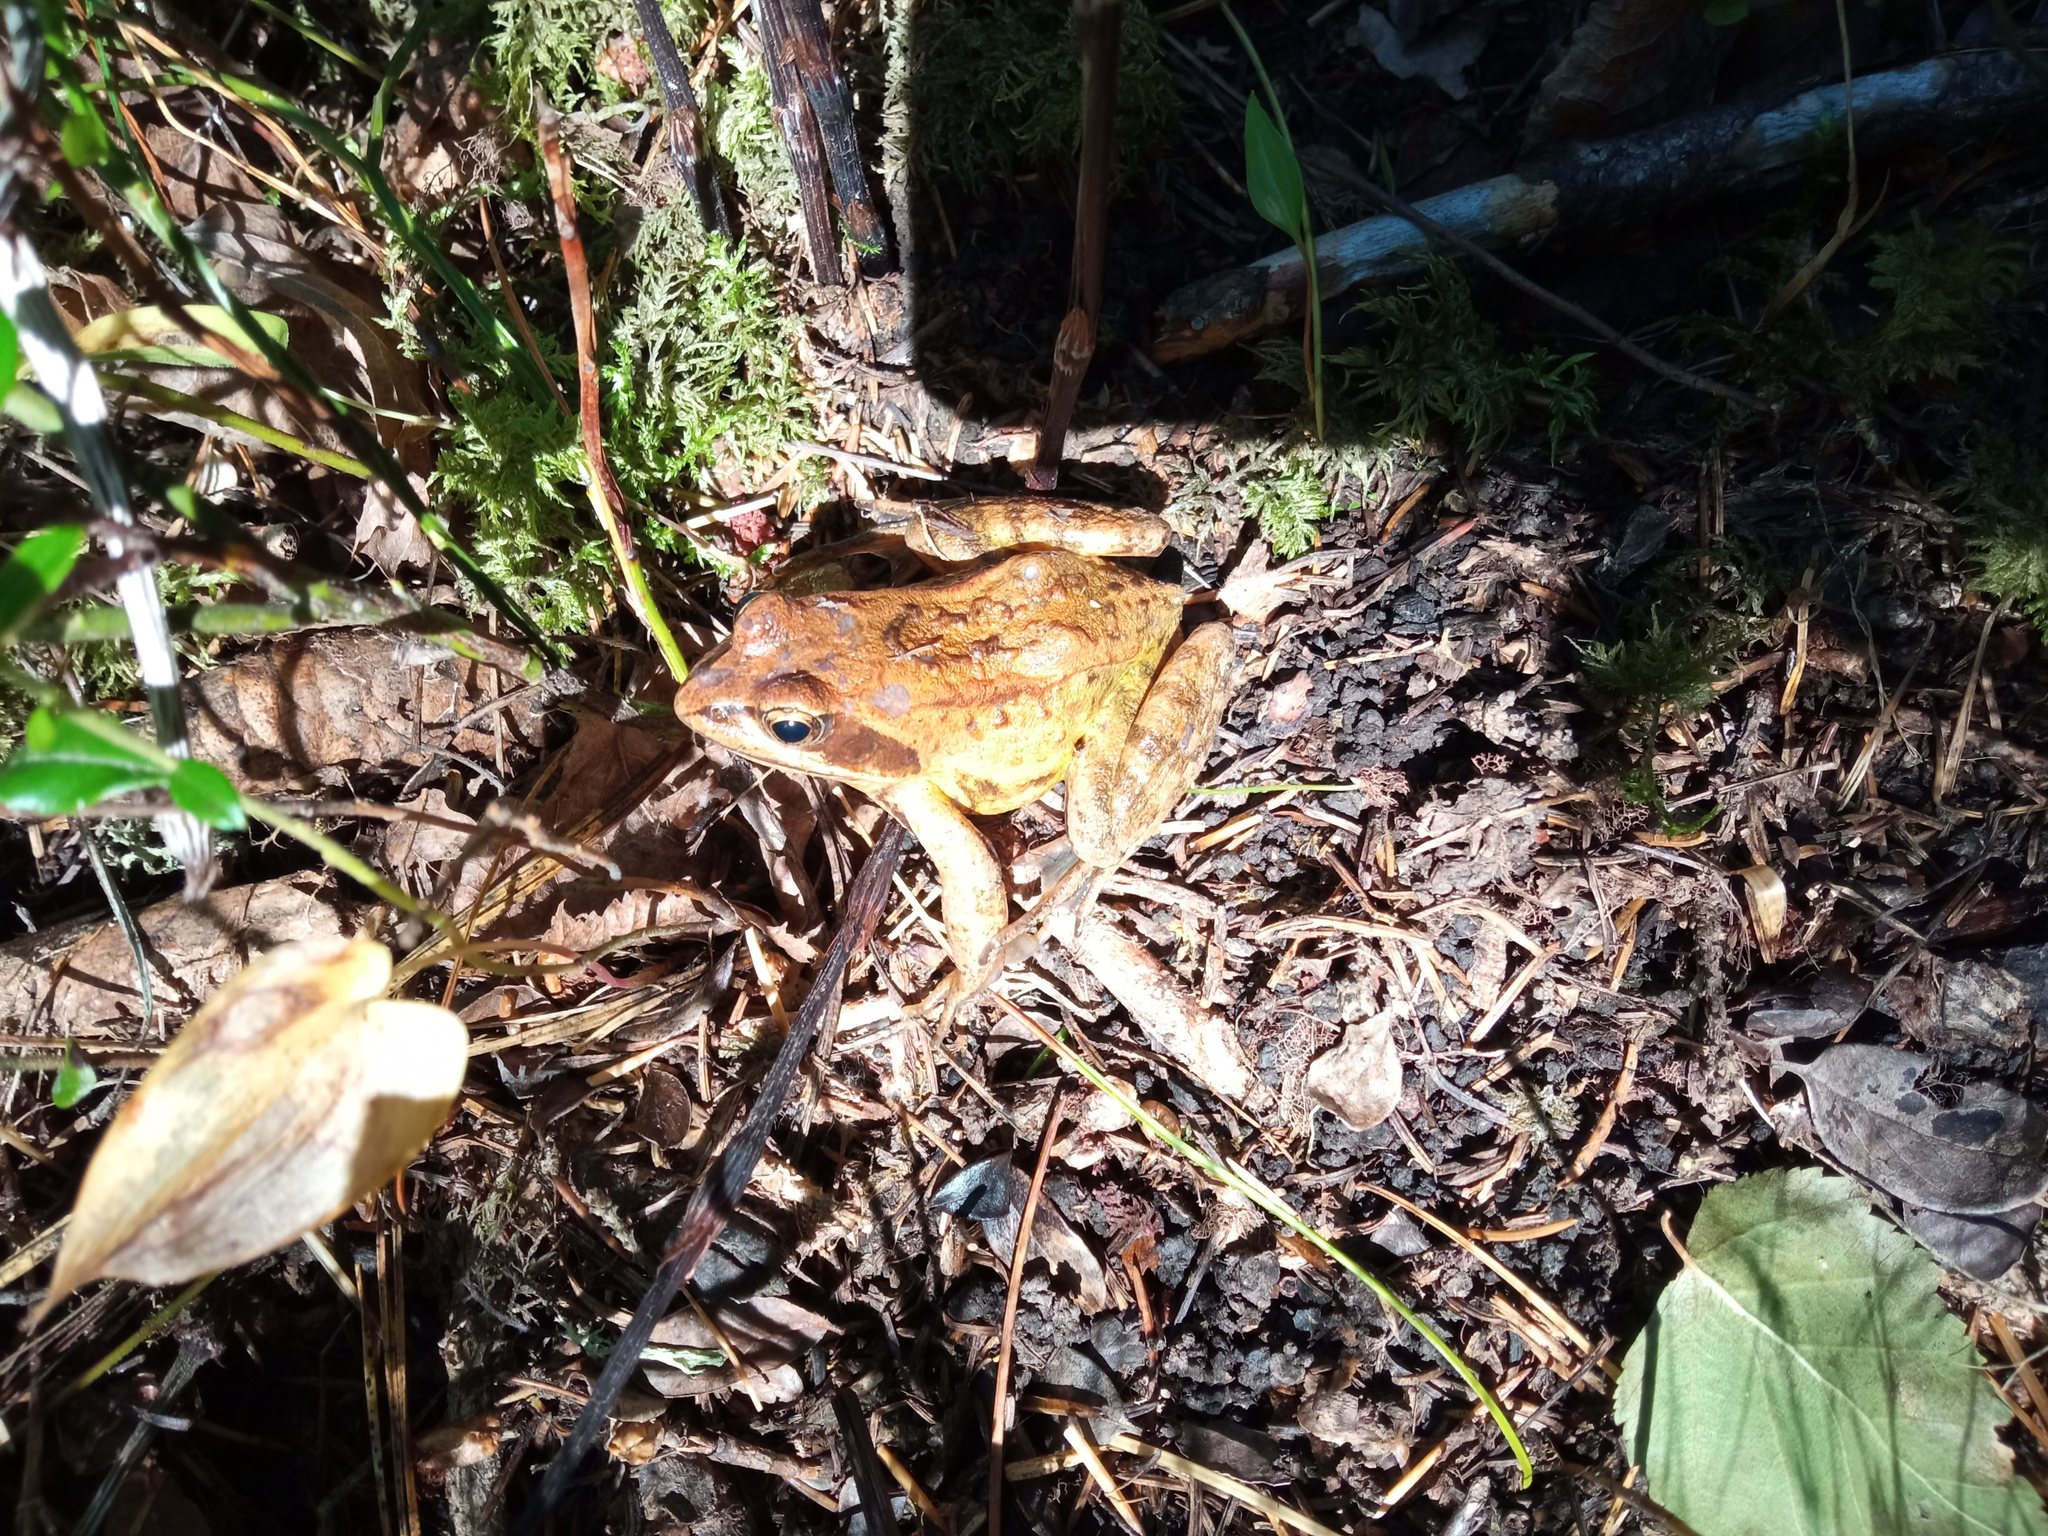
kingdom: Animalia
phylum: Chordata
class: Amphibia
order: Anura
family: Ranidae
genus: Rana
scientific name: Rana arvalis
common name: Moor frog
